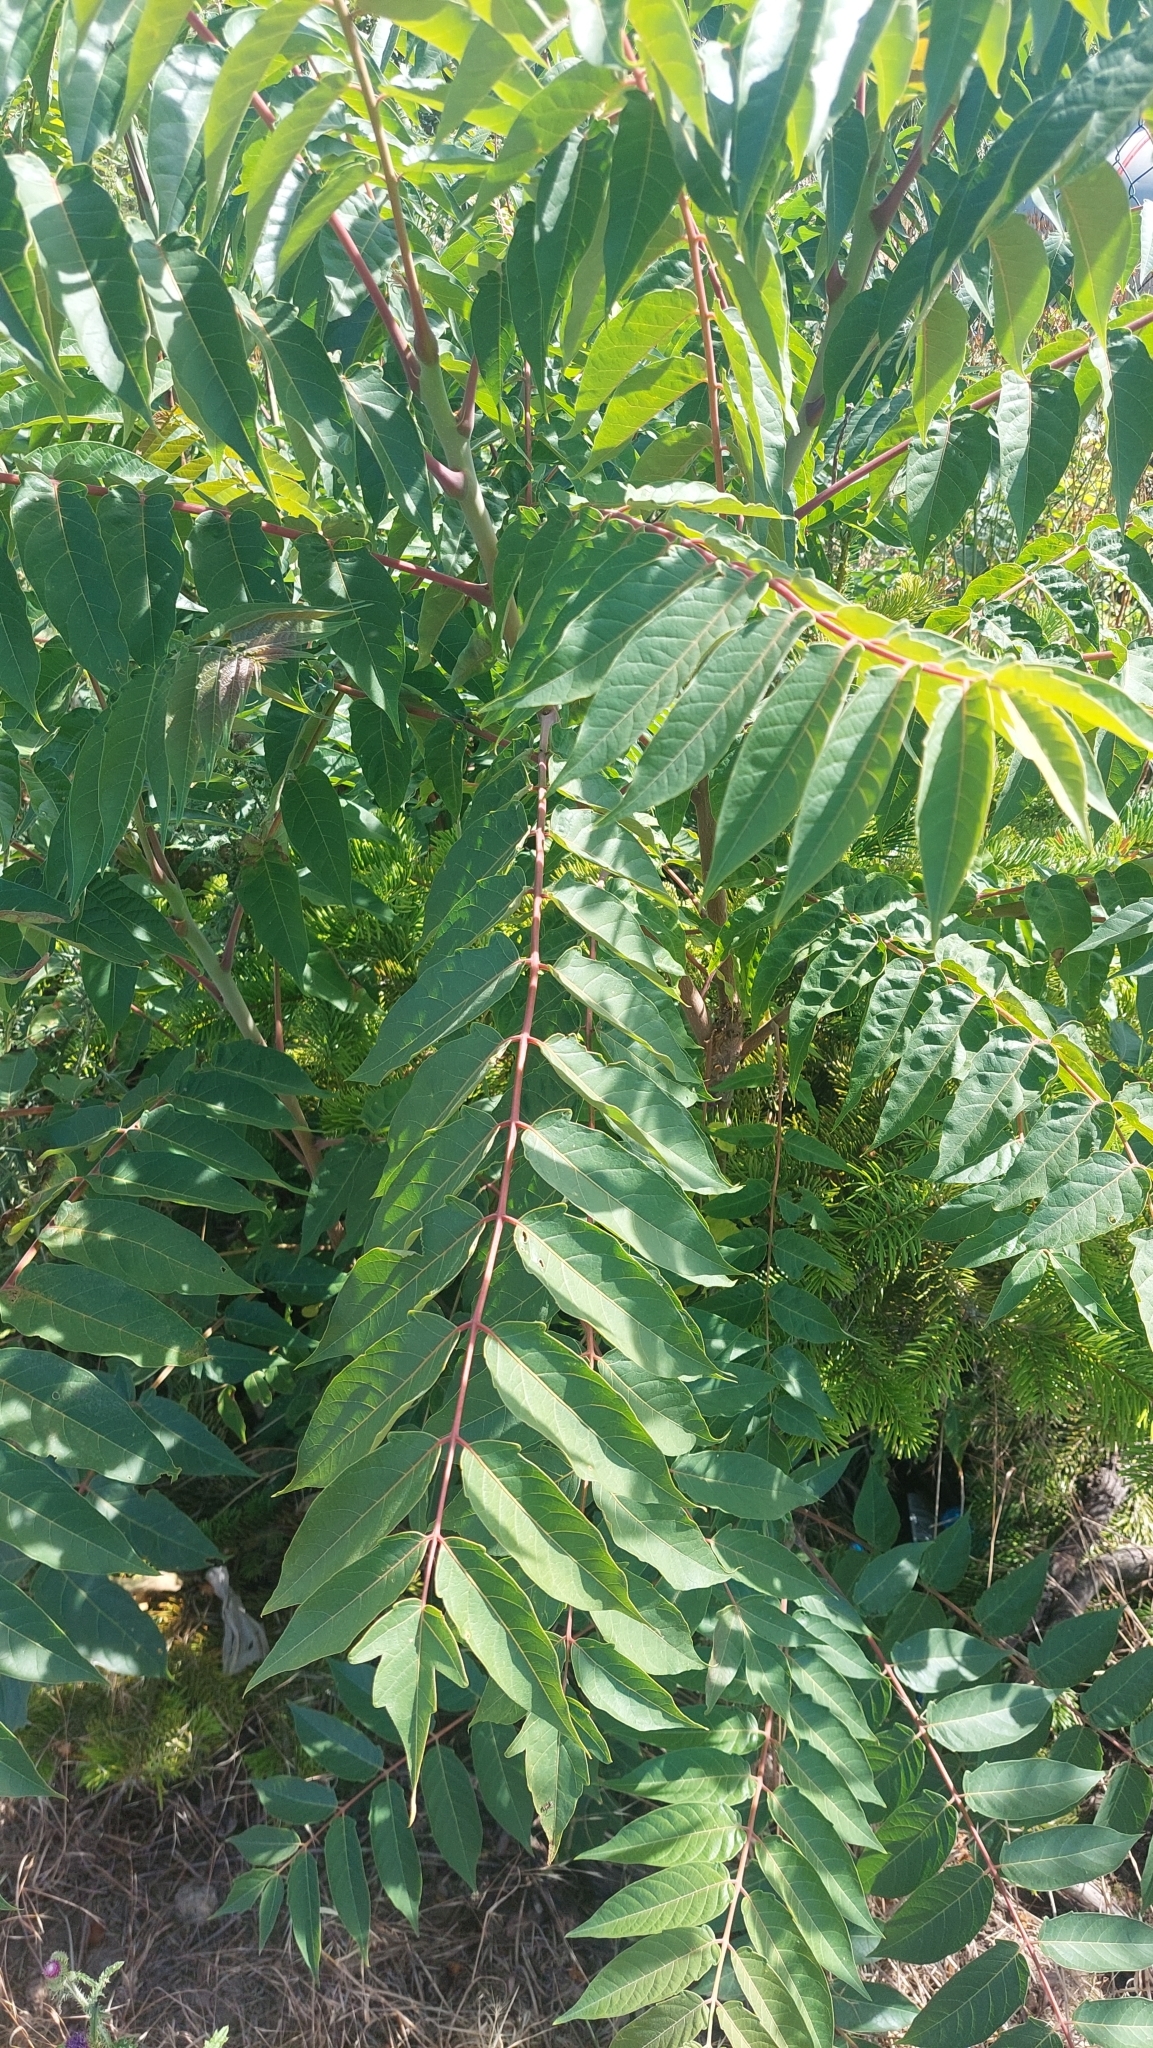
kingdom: Plantae
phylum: Tracheophyta
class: Magnoliopsida
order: Sapindales
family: Simaroubaceae
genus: Ailanthus
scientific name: Ailanthus altissima
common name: Tree-of-heaven
